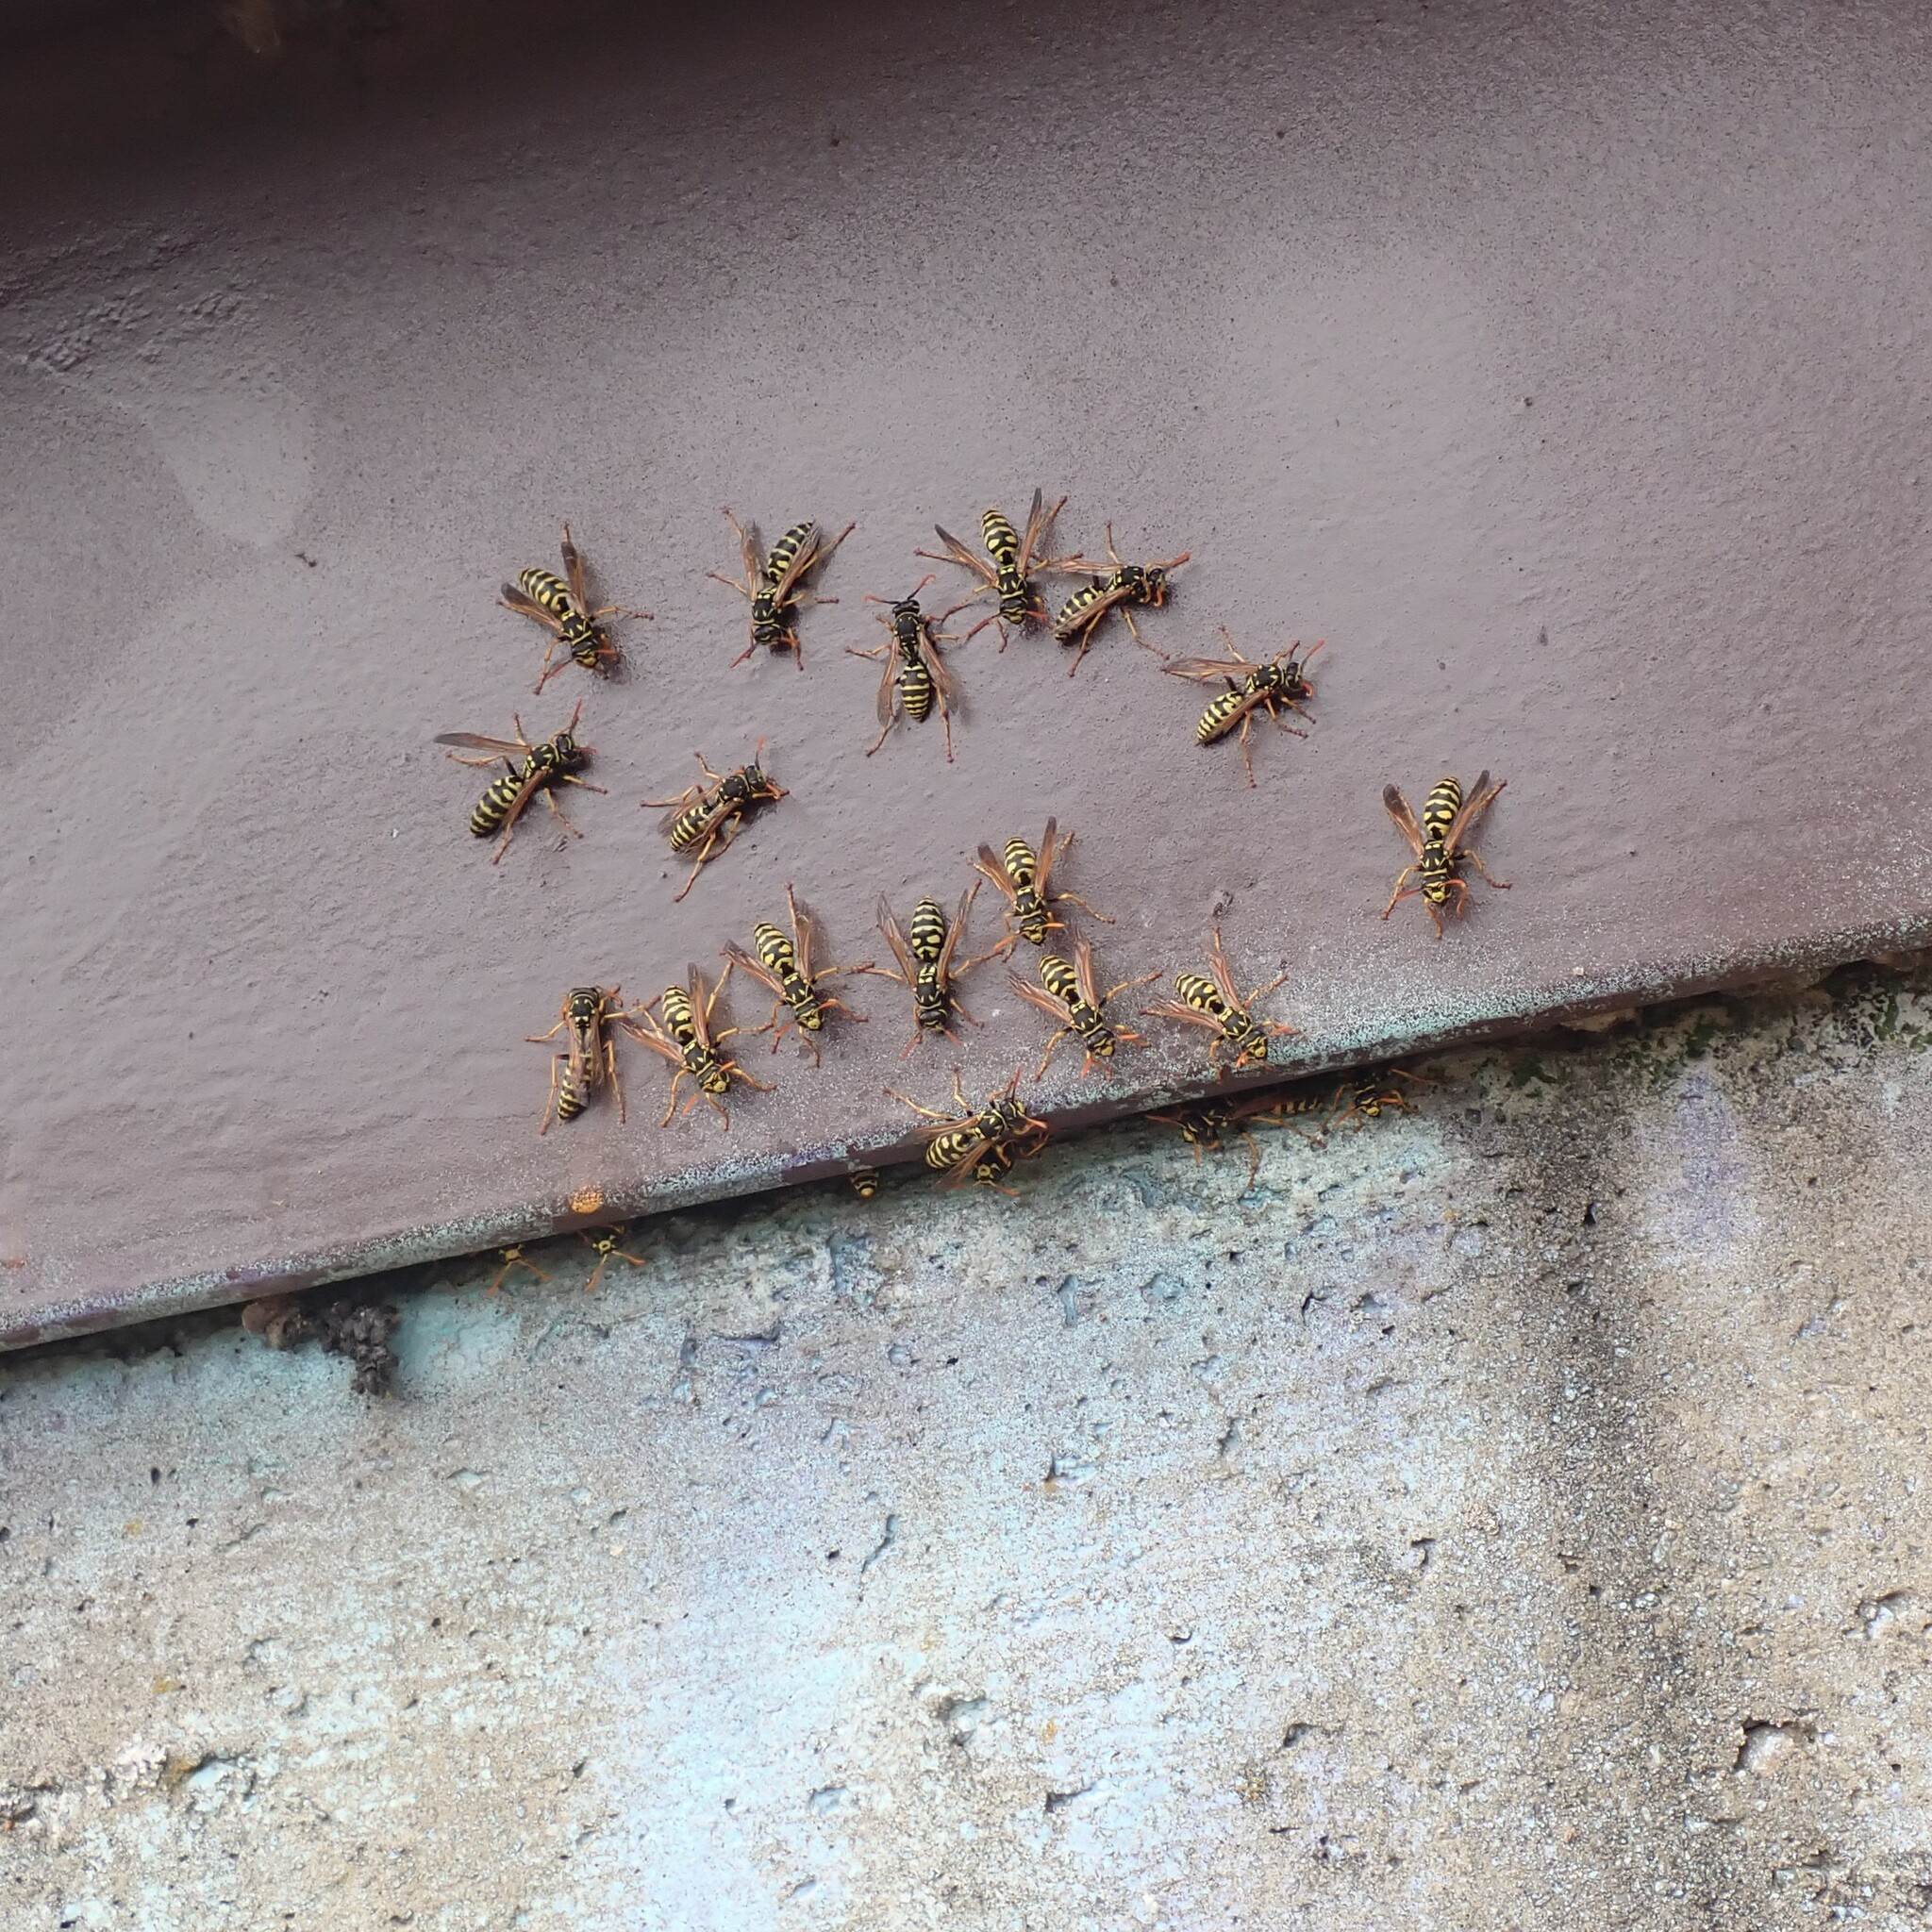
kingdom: Animalia
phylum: Arthropoda
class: Insecta
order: Hymenoptera
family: Eumenidae
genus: Polistes
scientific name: Polistes dominula
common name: Paper wasp
